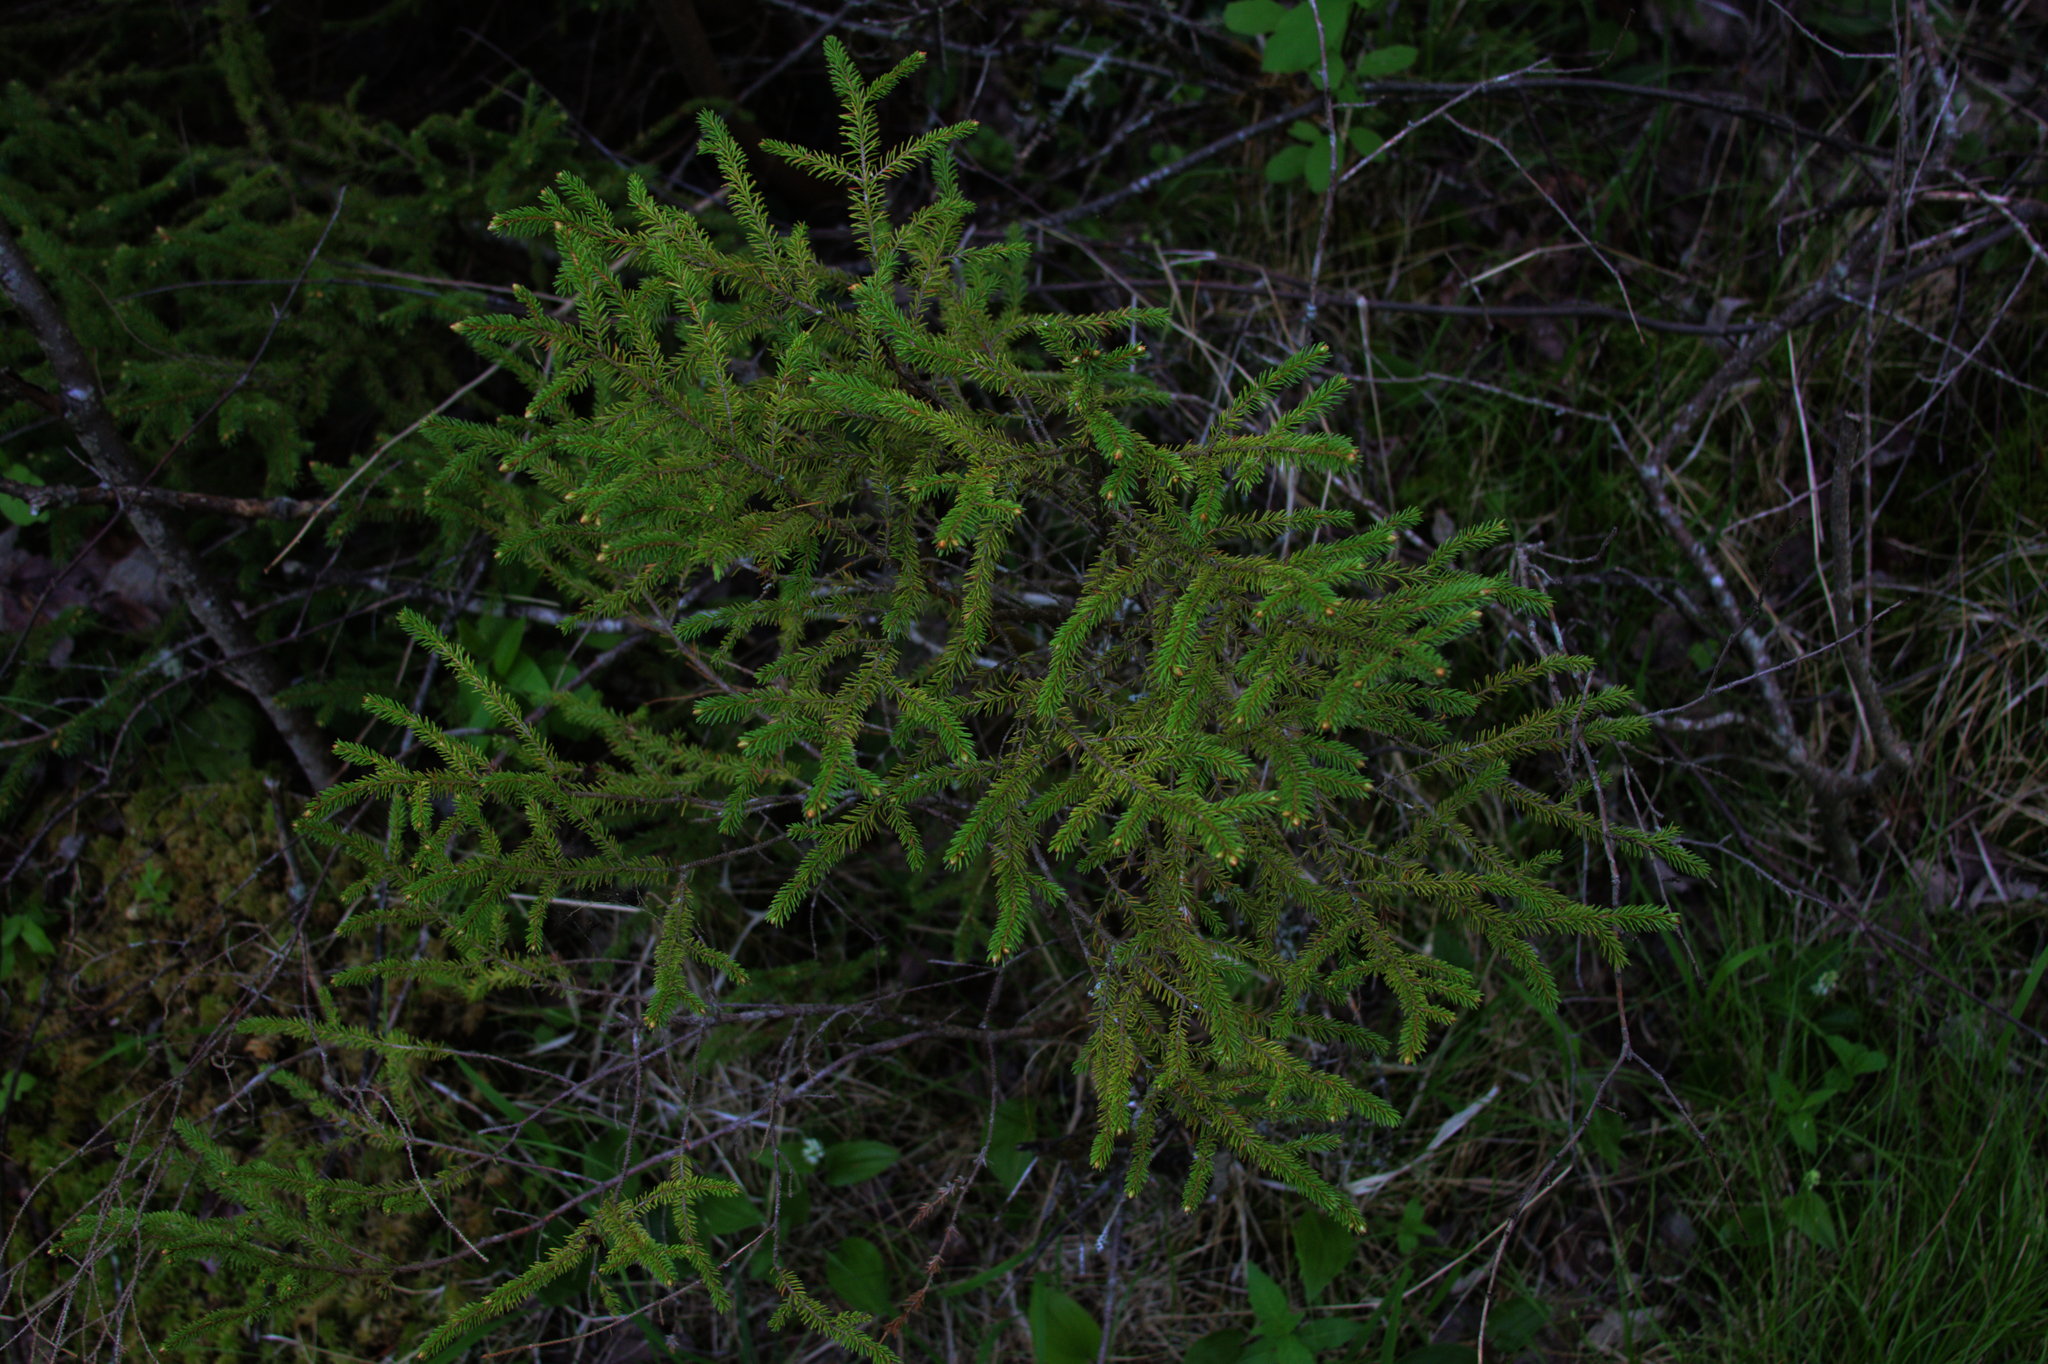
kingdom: Plantae
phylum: Tracheophyta
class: Pinopsida
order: Pinales
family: Pinaceae
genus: Picea
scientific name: Picea mariana
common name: Black spruce
